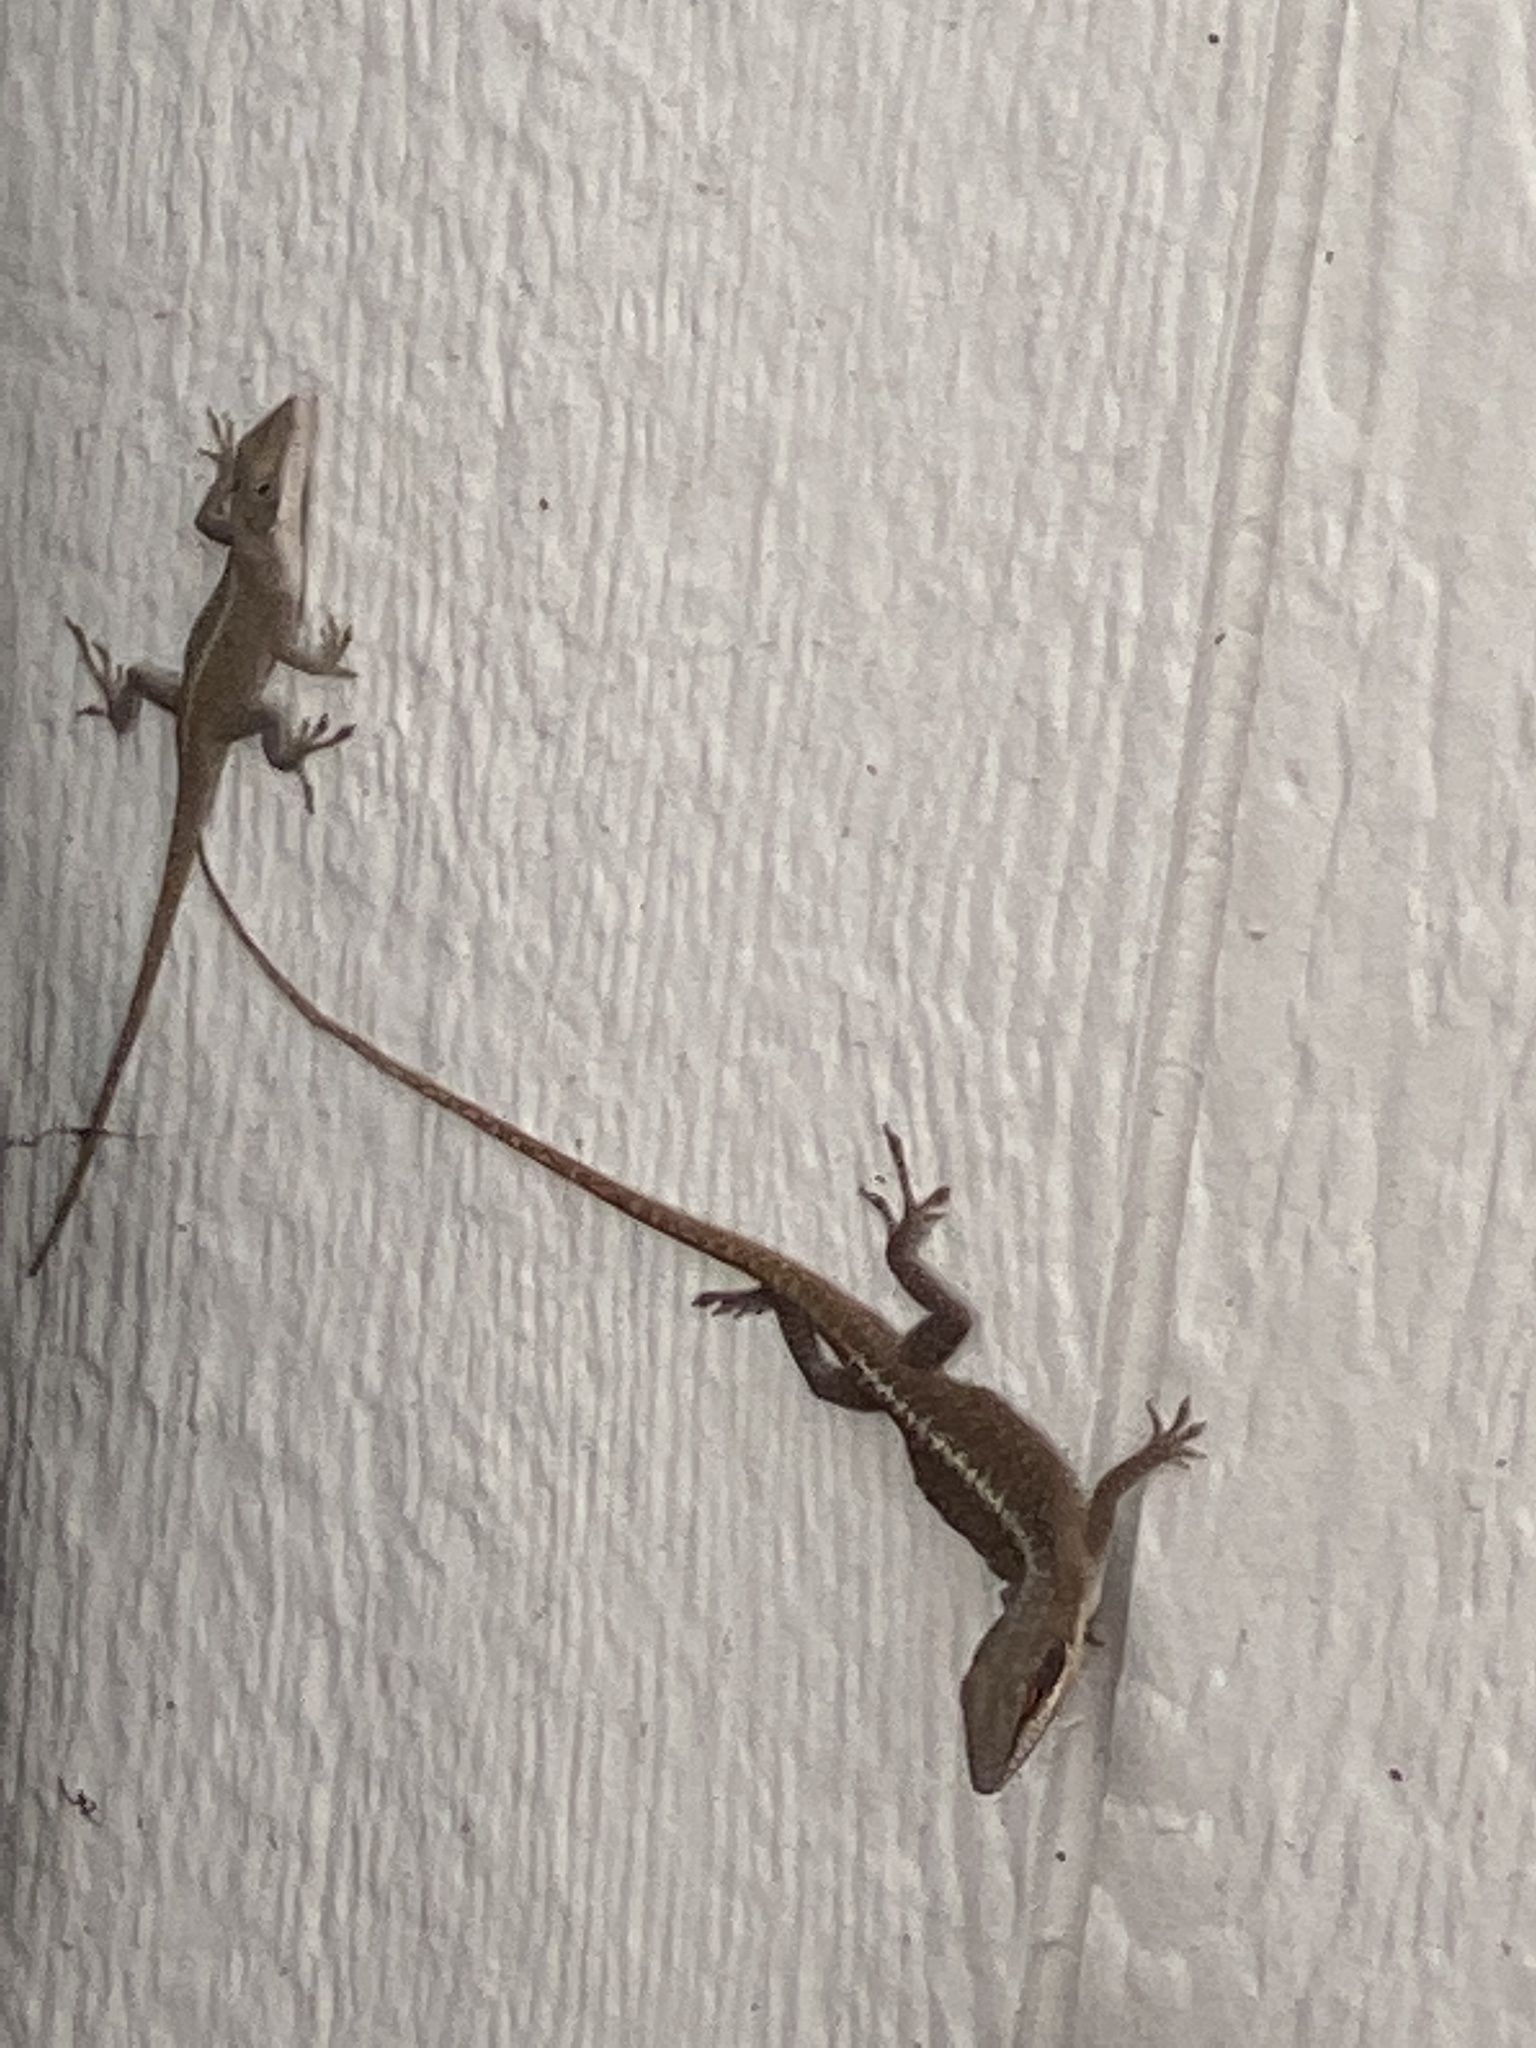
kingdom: Animalia
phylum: Chordata
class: Squamata
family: Dactyloidae
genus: Anolis
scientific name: Anolis carolinensis
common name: Green anole
